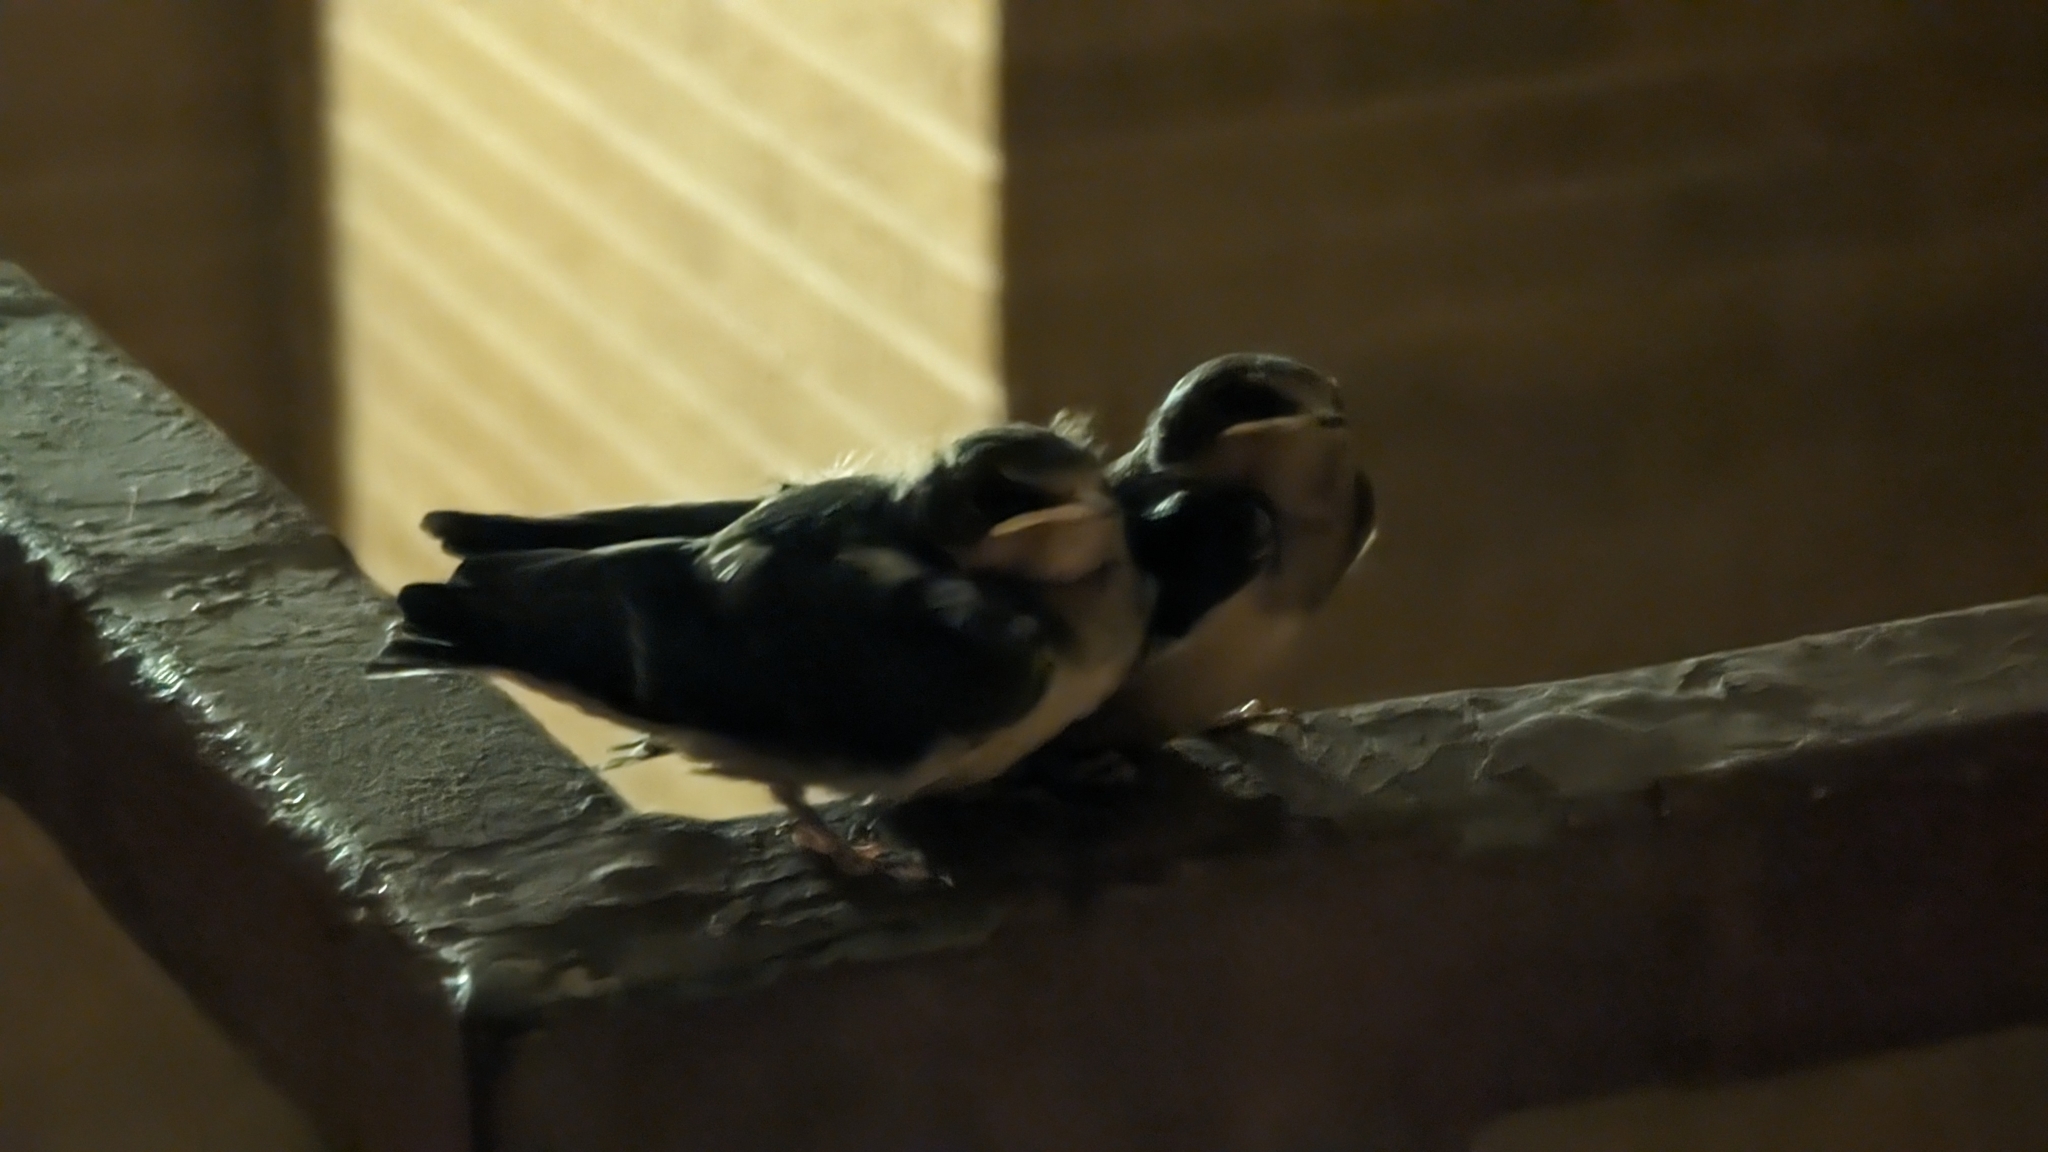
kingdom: Animalia
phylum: Chordata
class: Aves
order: Passeriformes
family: Hirundinidae
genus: Hirundo
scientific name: Hirundo rustica
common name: Barn swallow
